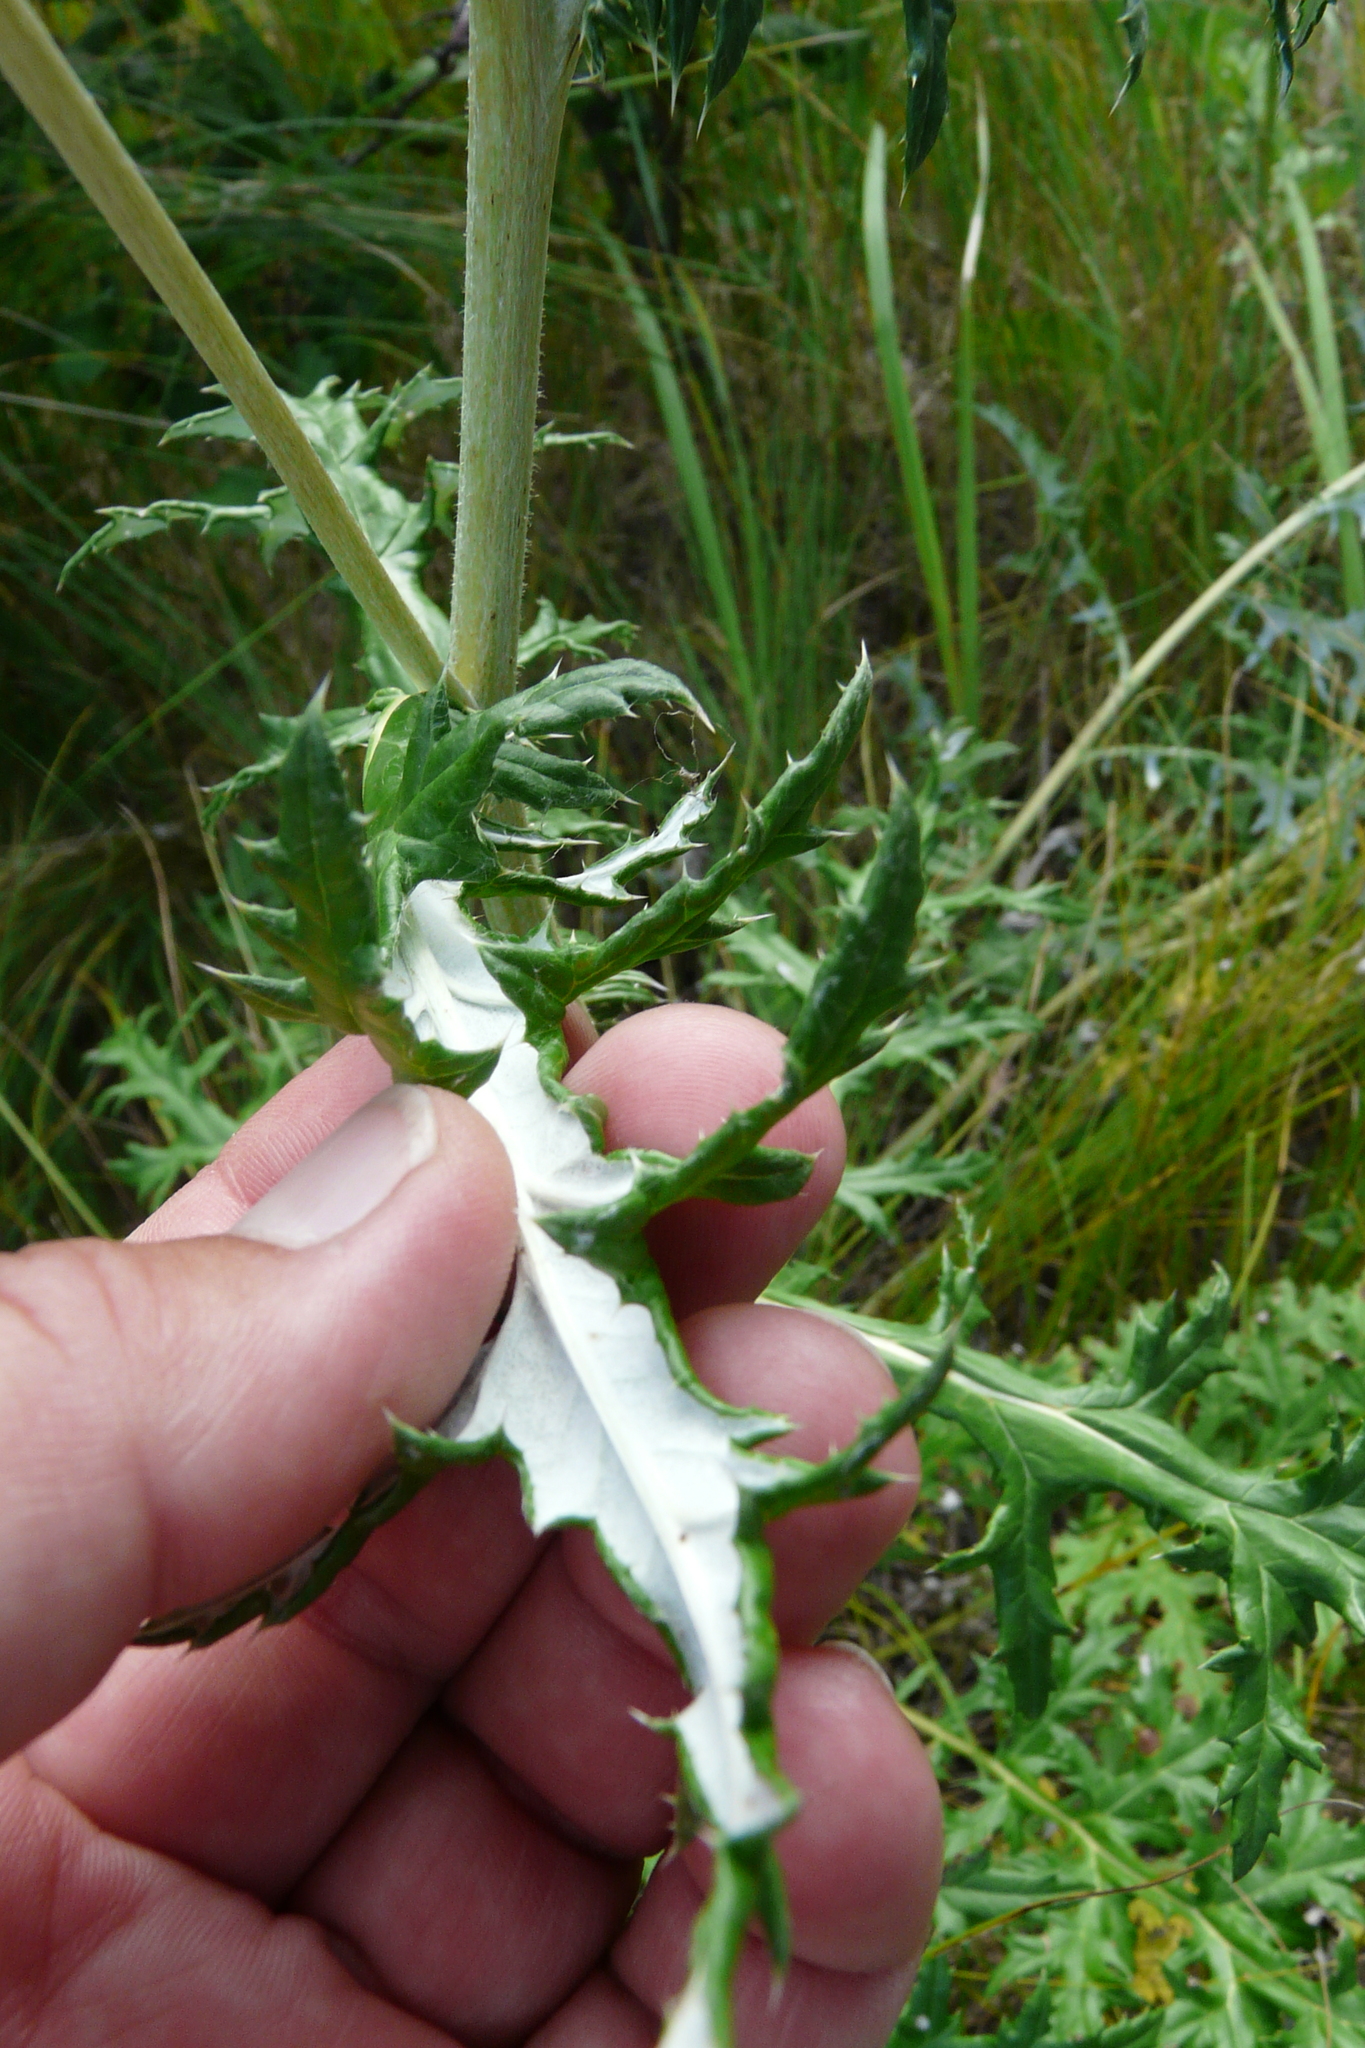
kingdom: Plantae
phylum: Tracheophyta
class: Magnoliopsida
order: Asterales
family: Asteraceae
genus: Echinops
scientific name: Echinops ritro
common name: Globe thistle
